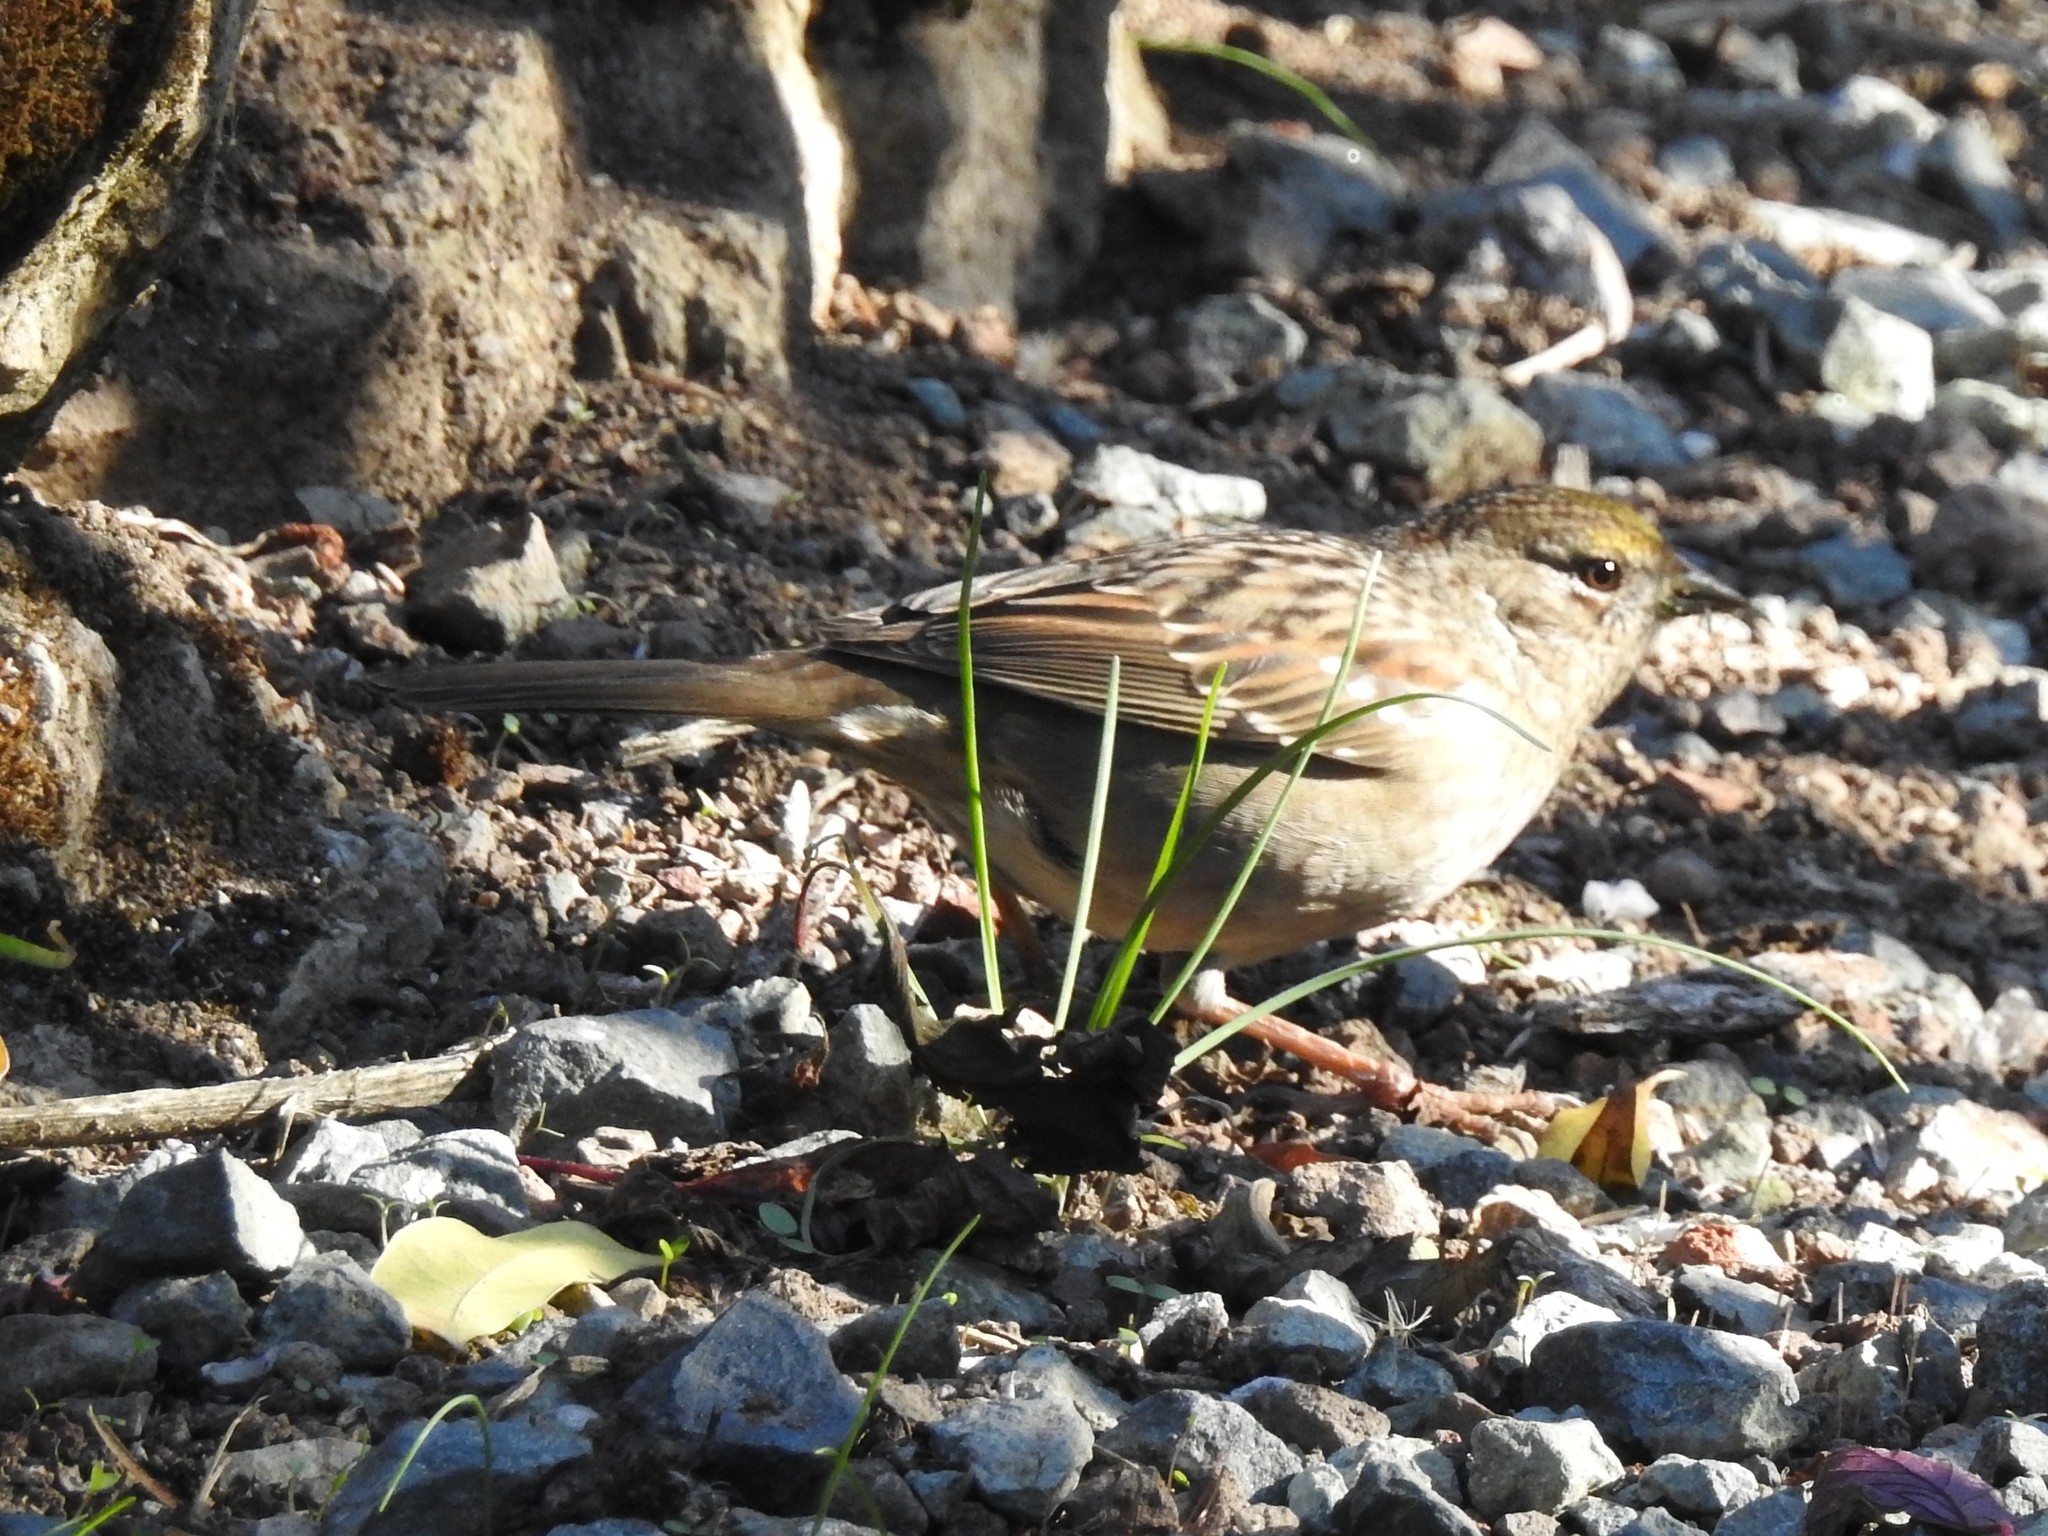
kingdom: Animalia
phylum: Chordata
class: Aves
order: Passeriformes
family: Passerellidae
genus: Zonotrichia
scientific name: Zonotrichia atricapilla
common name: Golden-crowned sparrow
